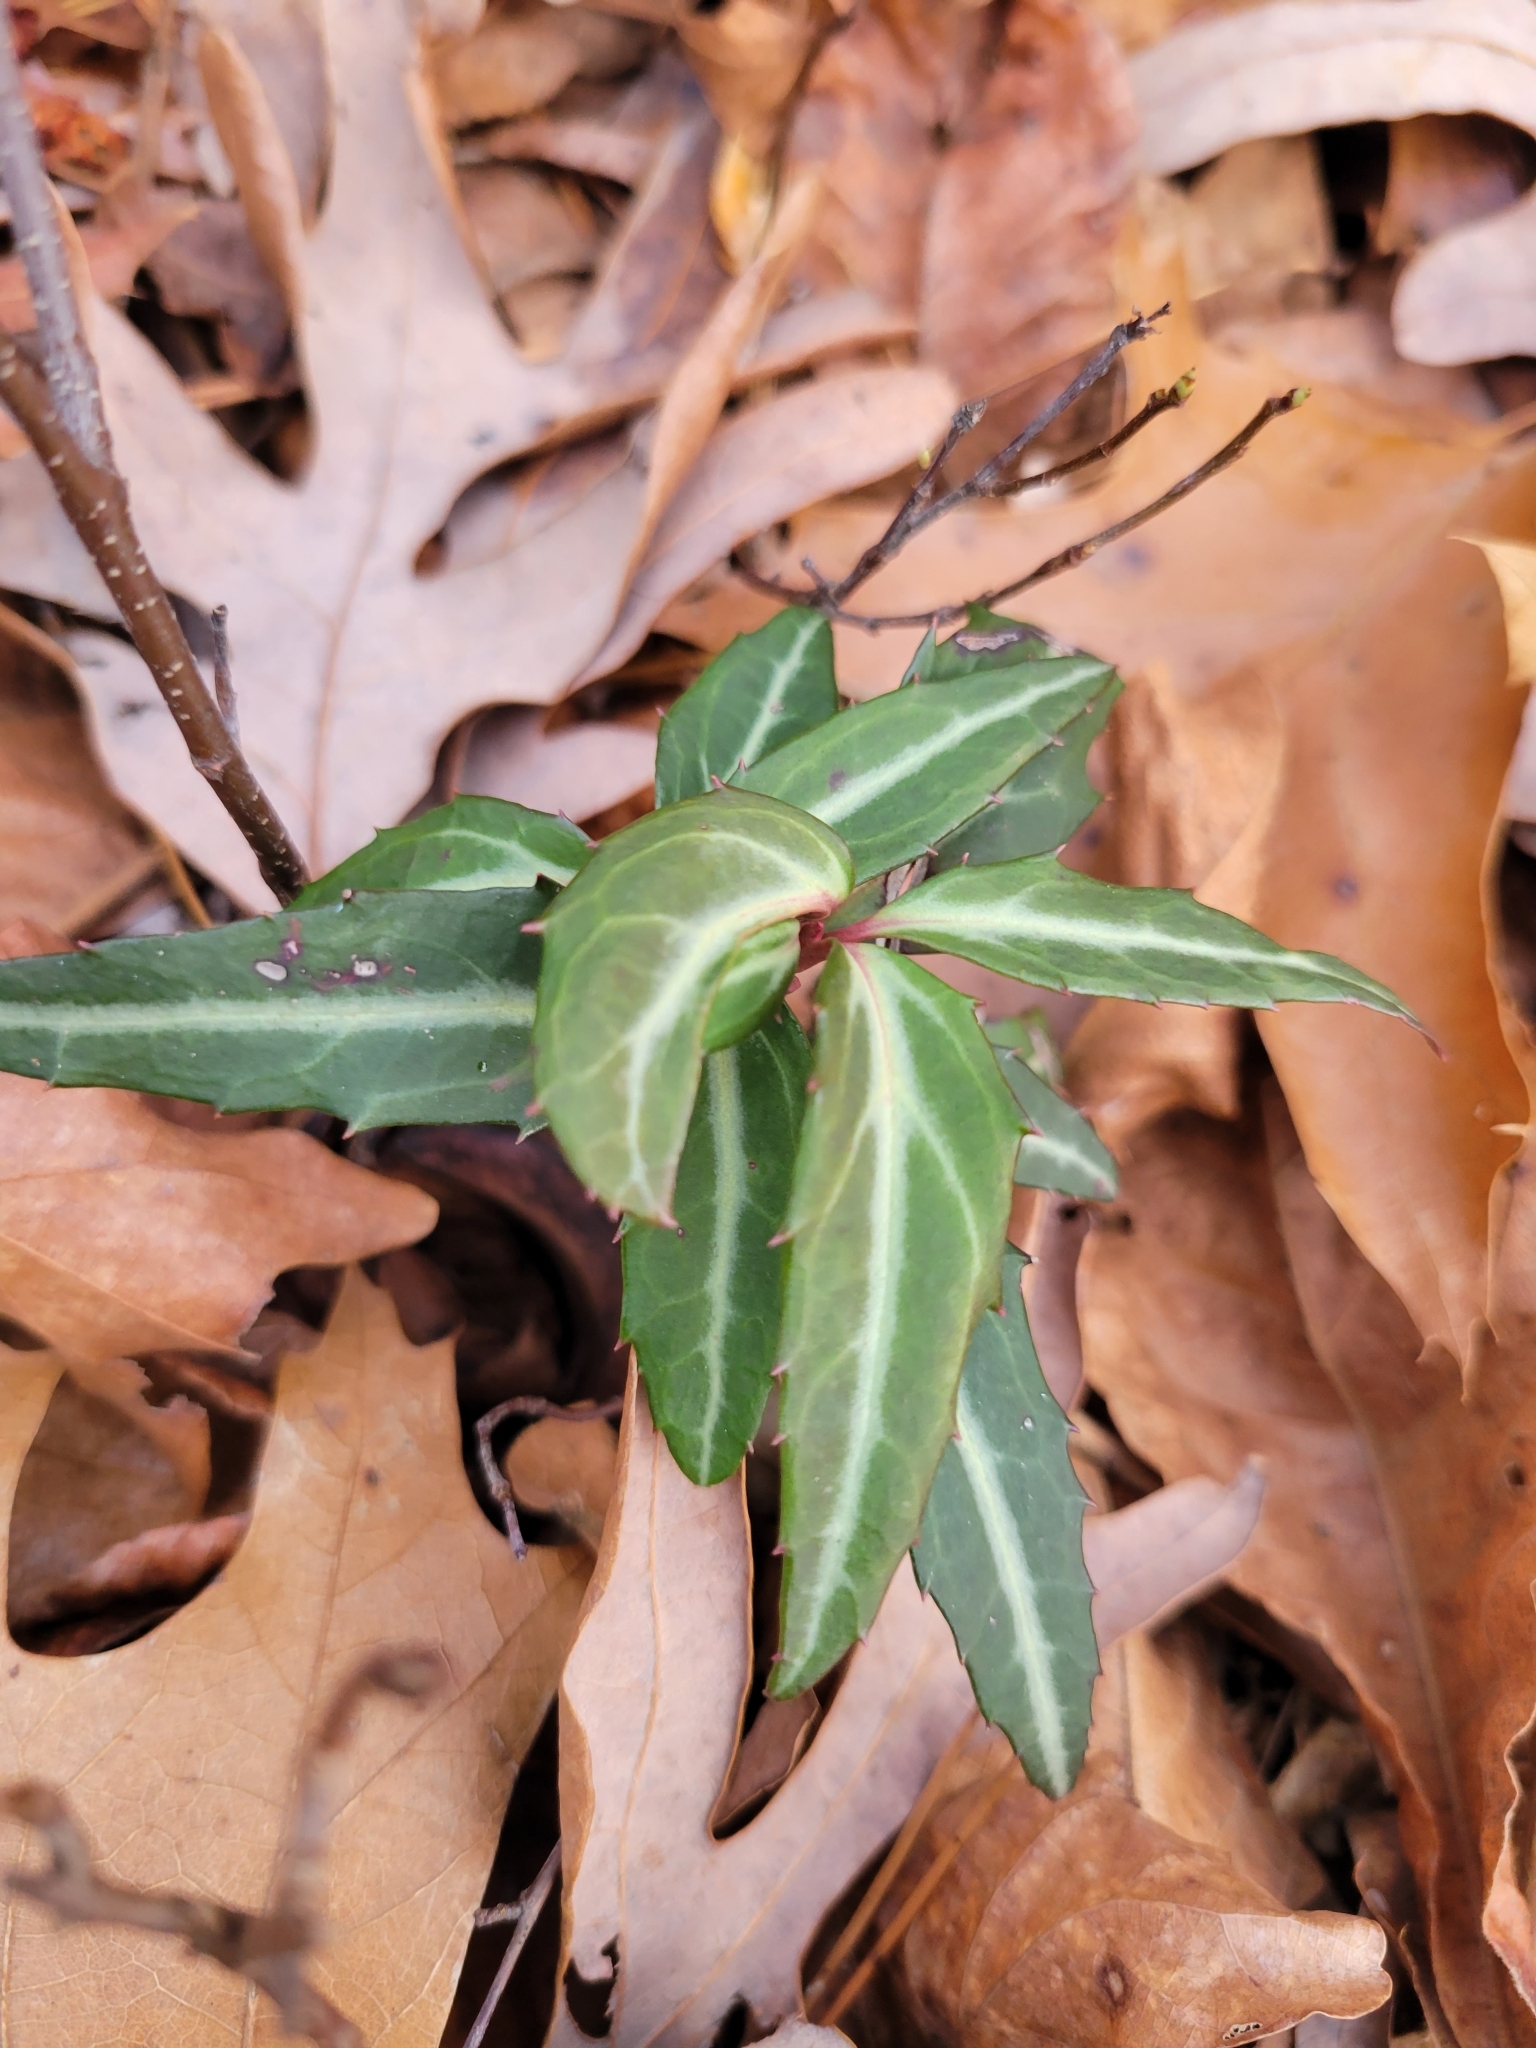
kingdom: Plantae
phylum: Tracheophyta
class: Magnoliopsida
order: Ericales
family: Ericaceae
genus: Chimaphila
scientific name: Chimaphila maculata
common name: Spotted pipsissewa
